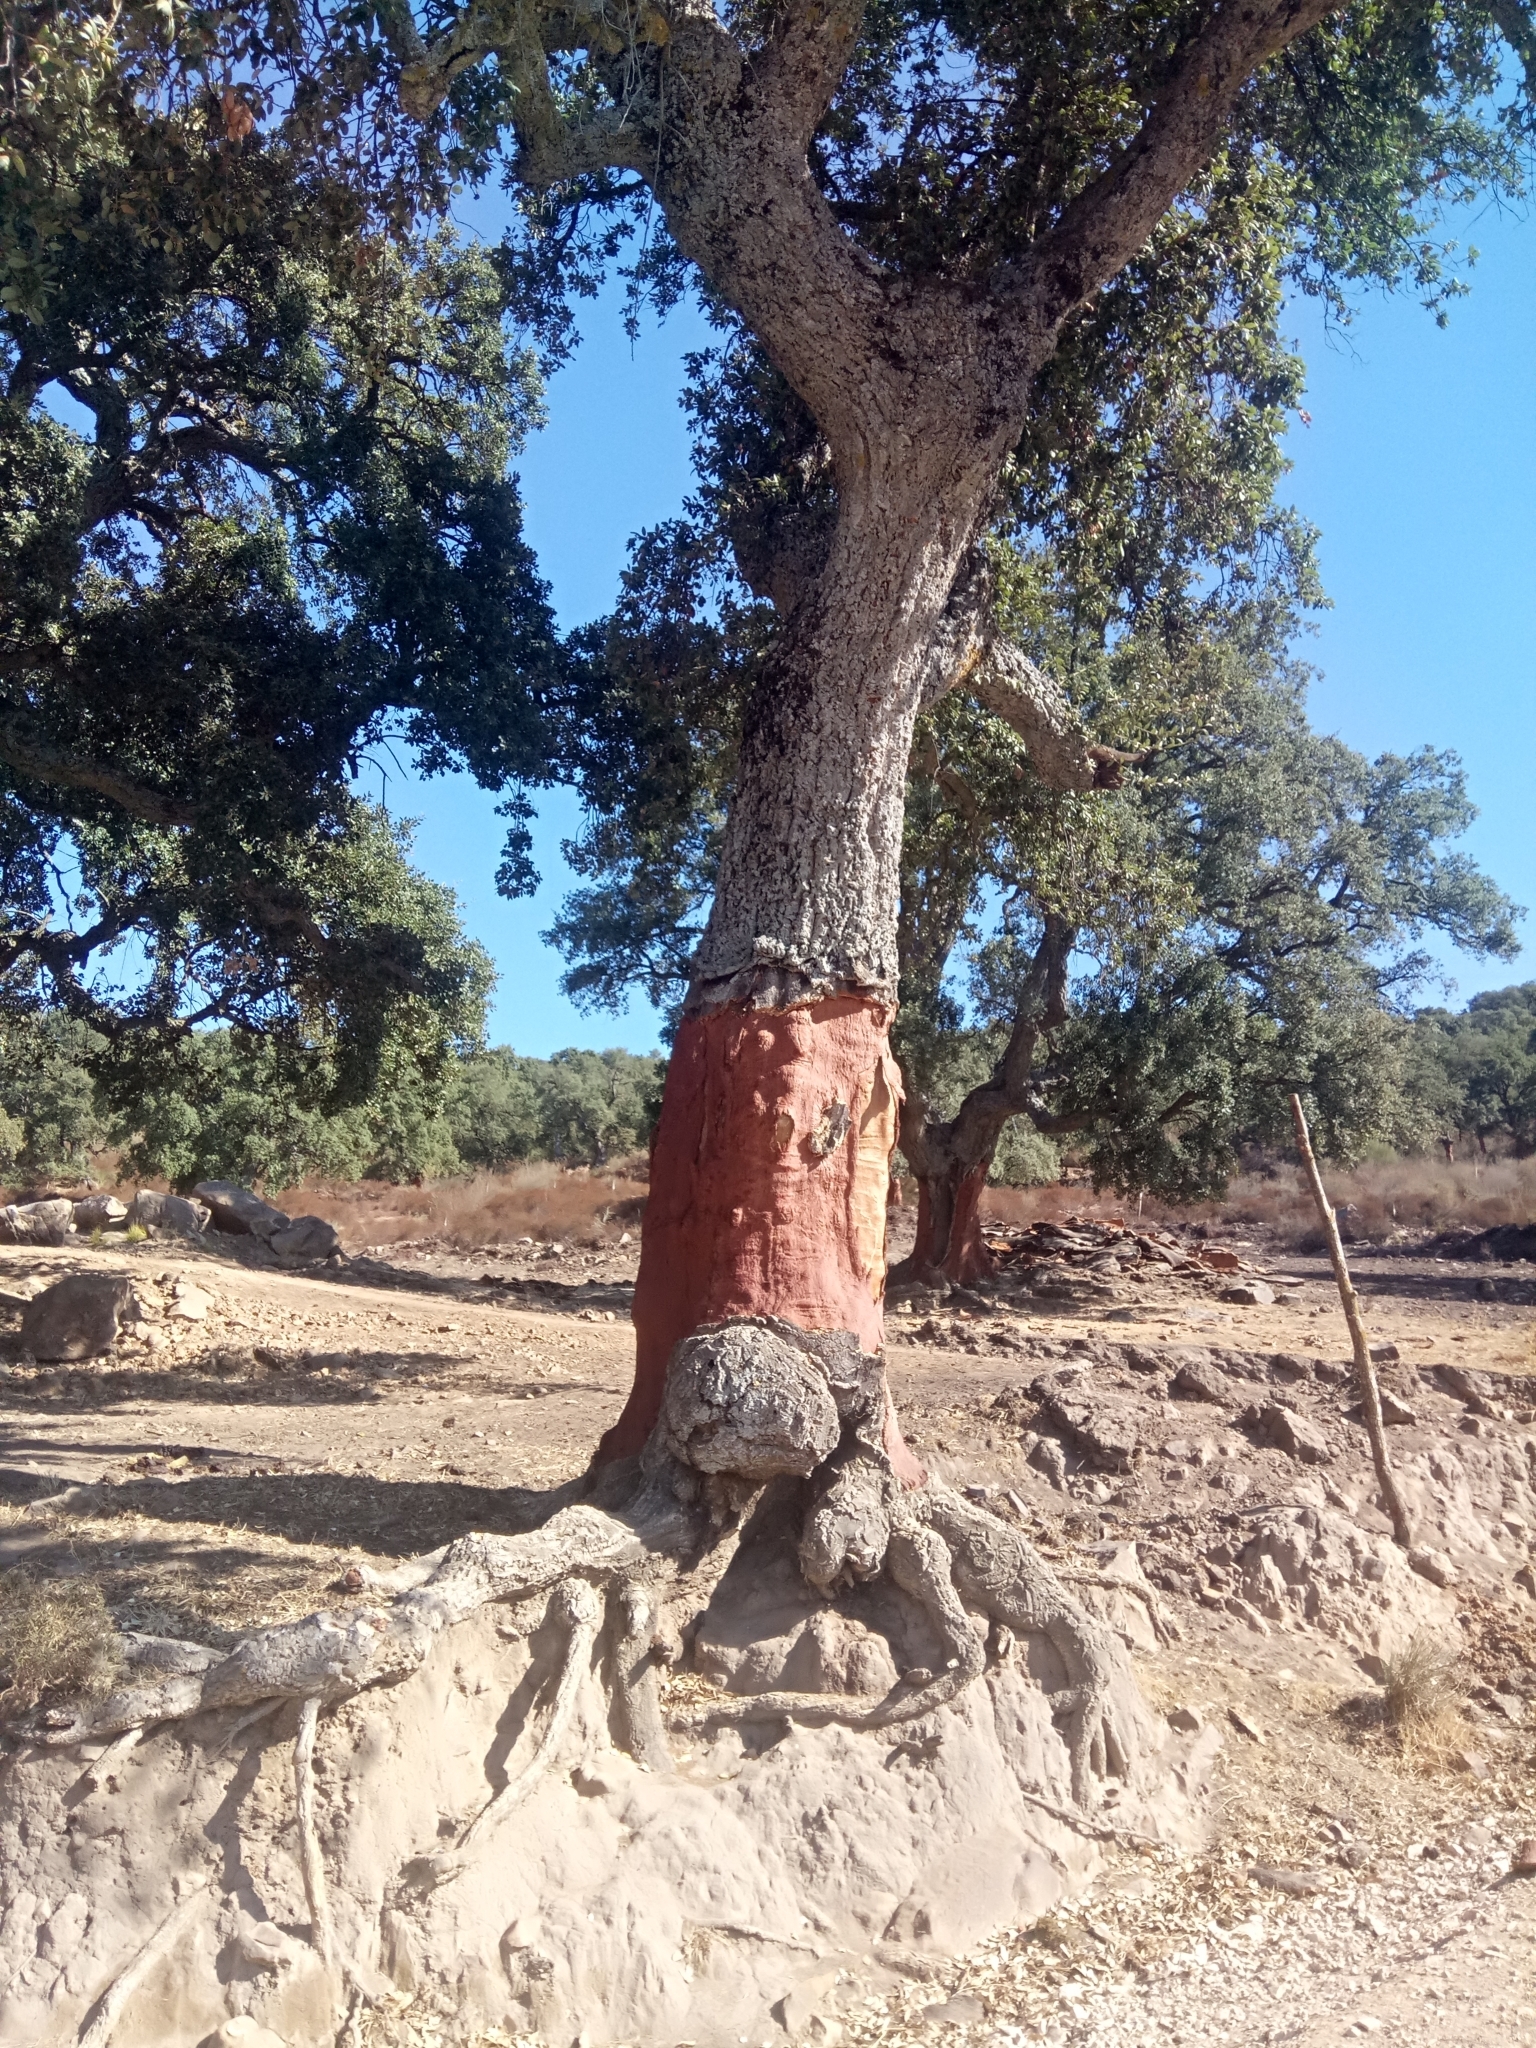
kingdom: Plantae
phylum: Tracheophyta
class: Magnoliopsida
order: Fagales
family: Fagaceae
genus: Quercus
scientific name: Quercus suber
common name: Cork oak
